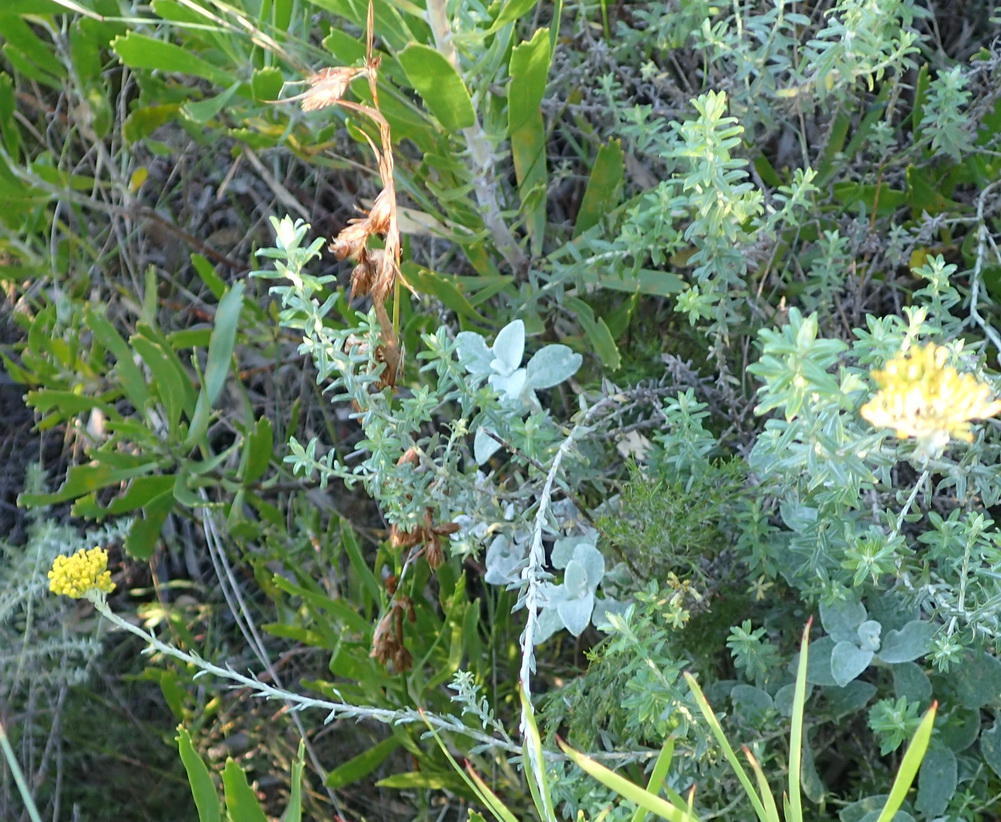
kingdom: Plantae
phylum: Tracheophyta
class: Magnoliopsida
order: Asterales
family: Asteraceae
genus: Helichrysum
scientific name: Helichrysum cymosum
